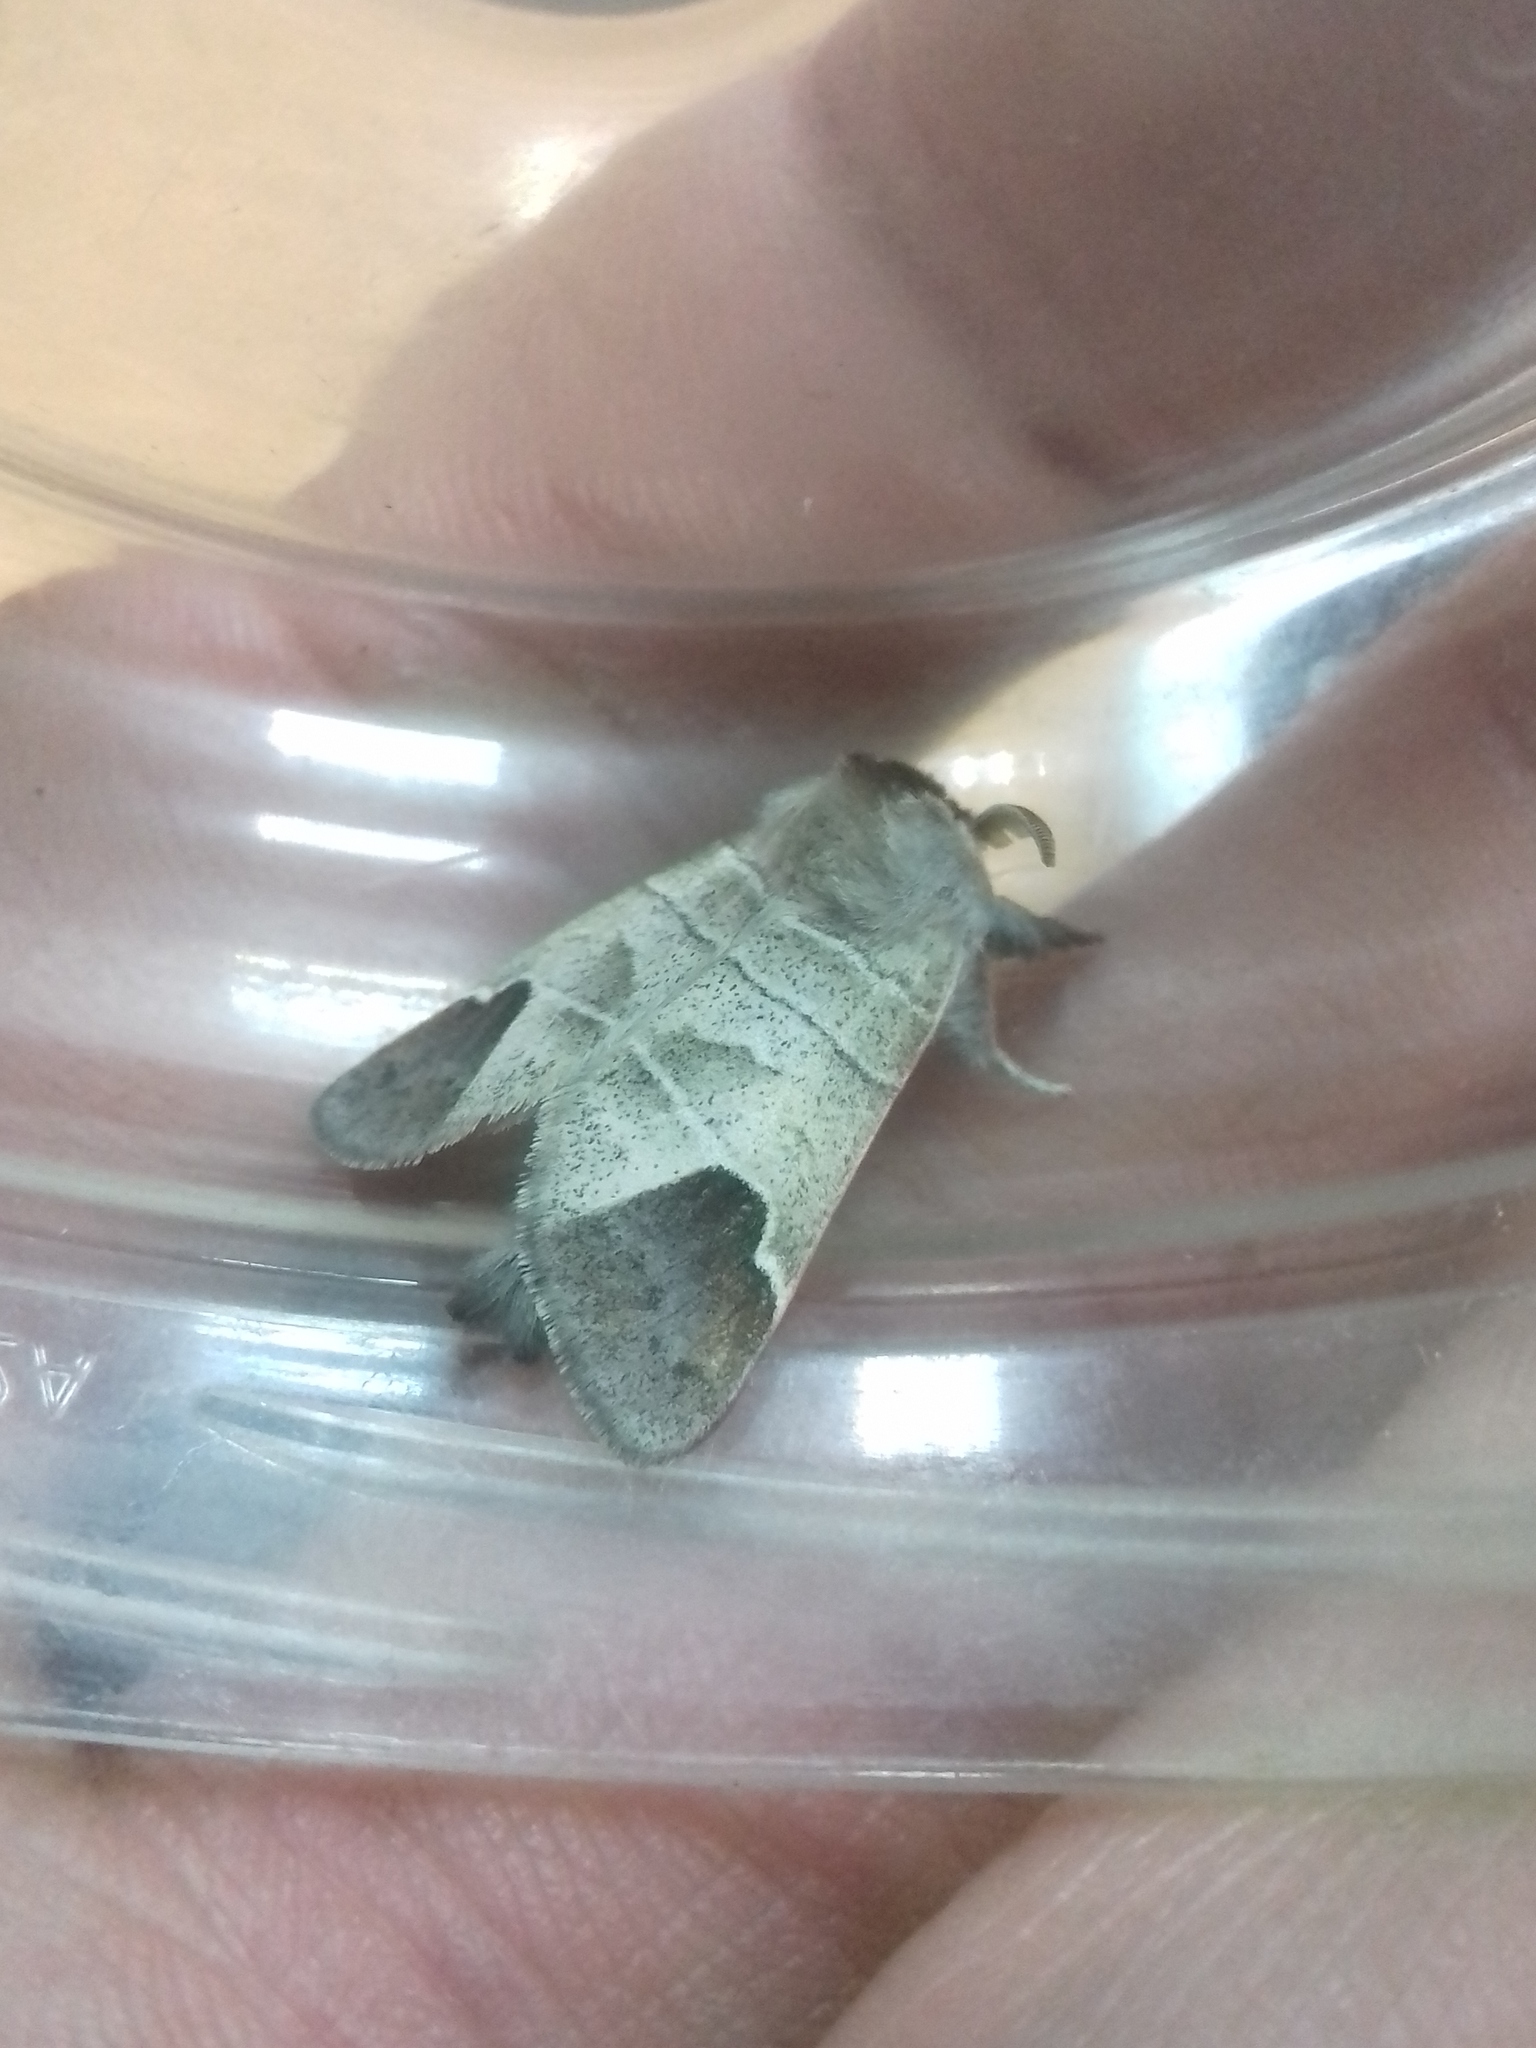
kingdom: Animalia
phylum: Arthropoda
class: Insecta
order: Lepidoptera
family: Notodontidae
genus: Clostera
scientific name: Clostera curtula
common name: Chocolate-tip
